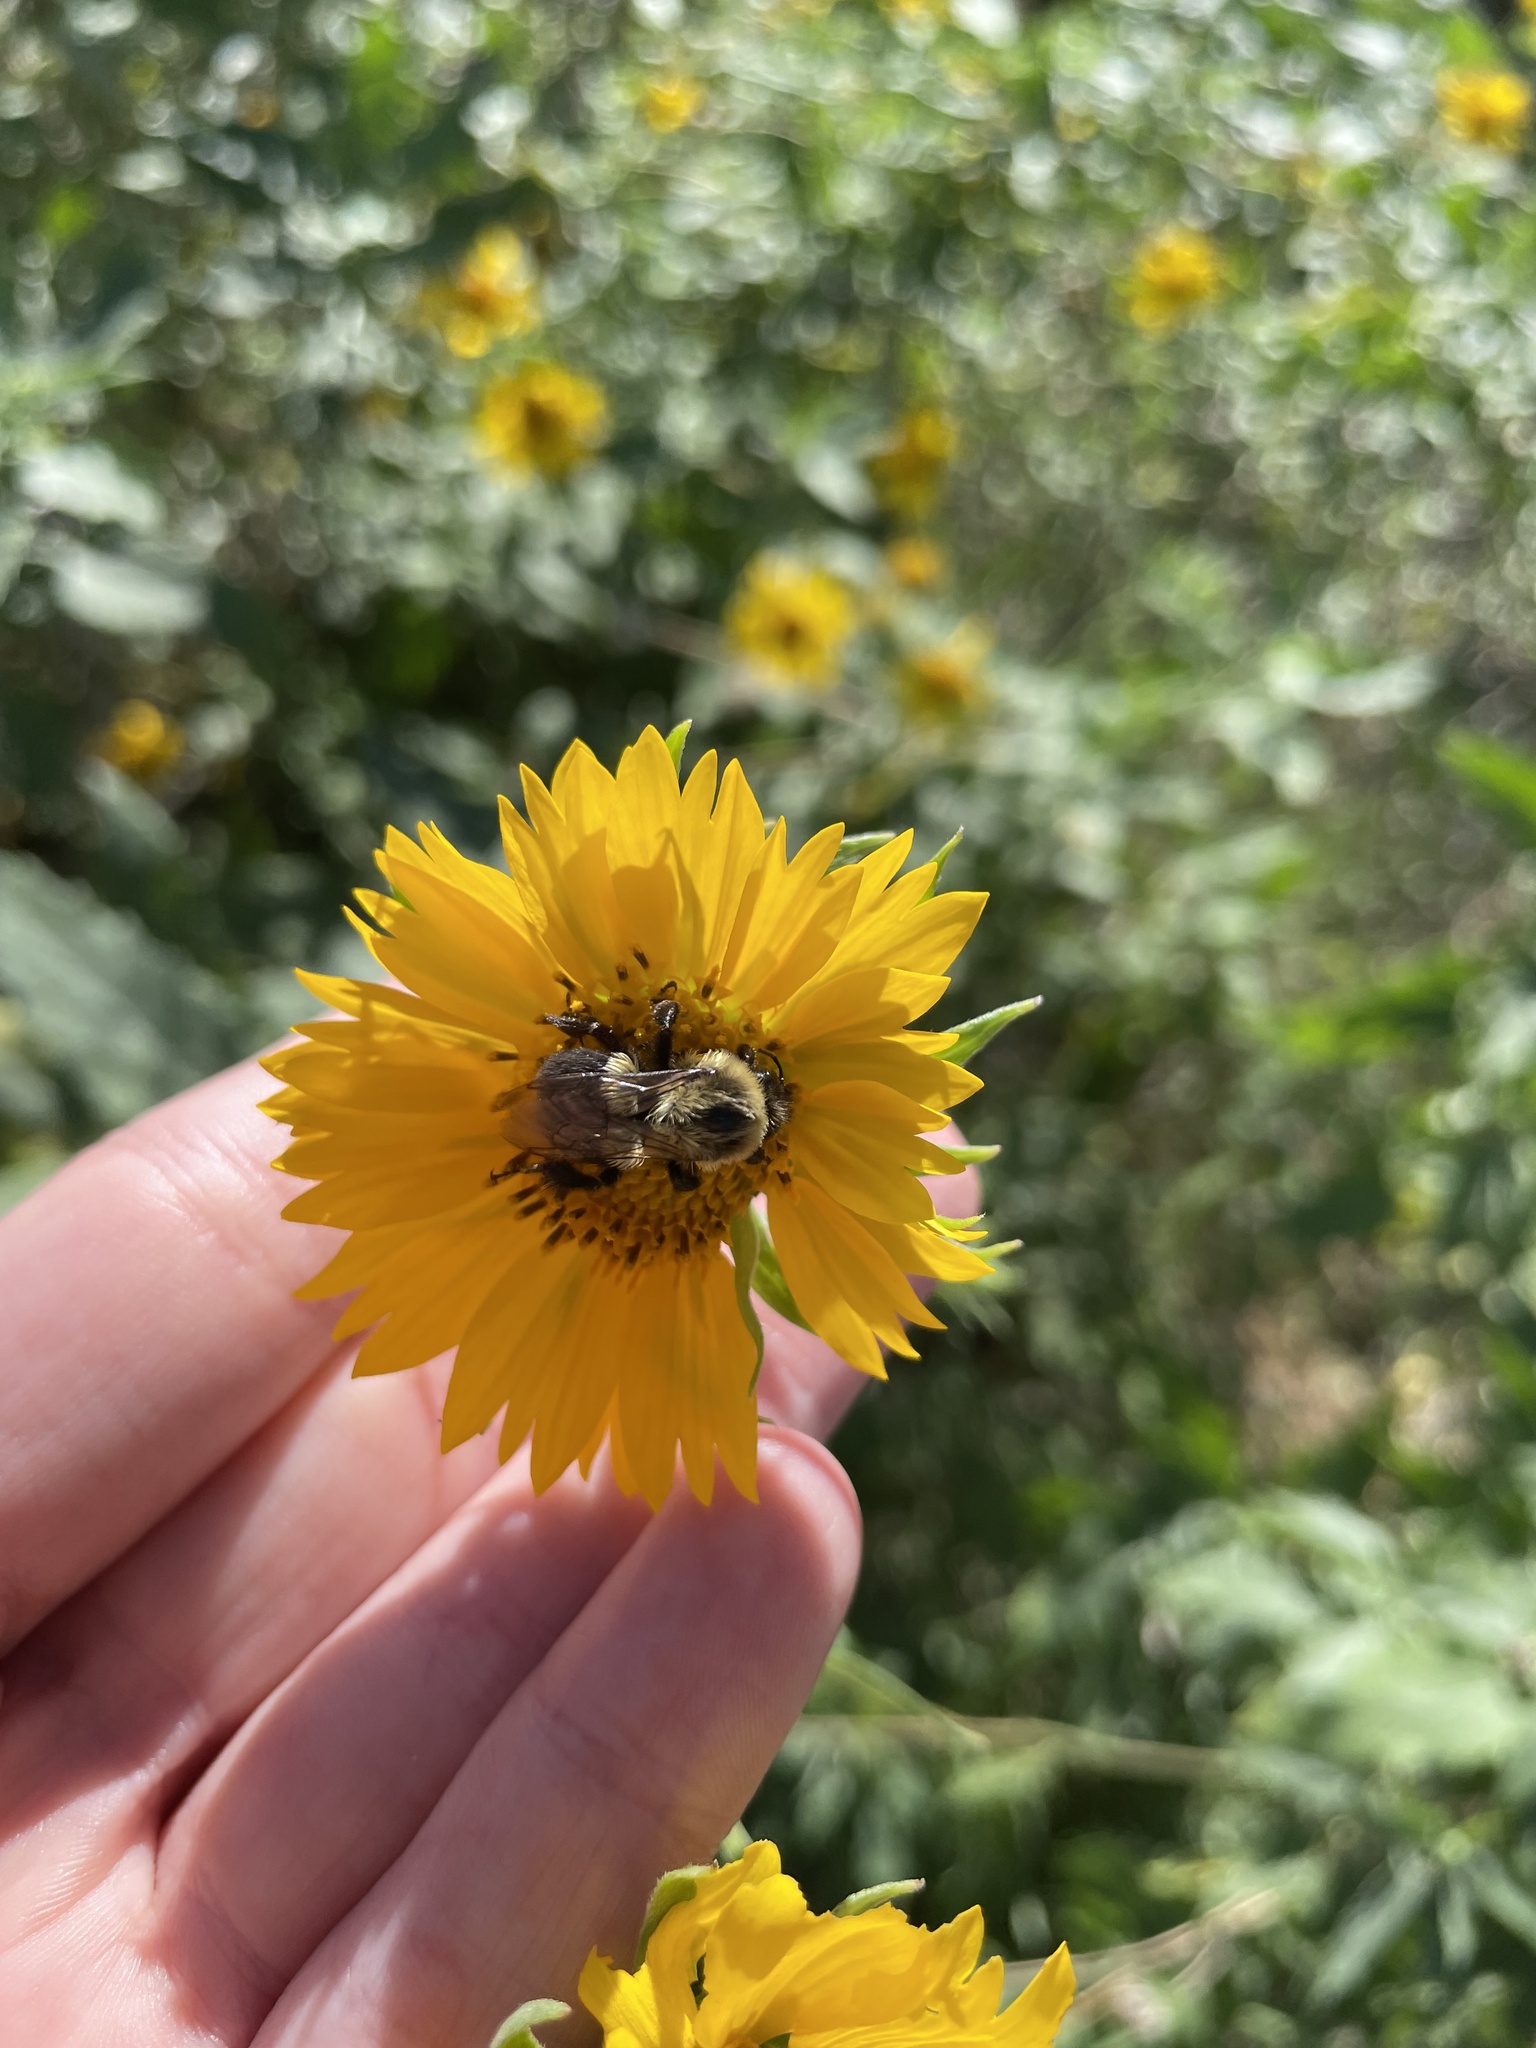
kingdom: Animalia
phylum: Arthropoda
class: Insecta
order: Hymenoptera
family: Apidae
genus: Bombus
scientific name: Bombus impatiens
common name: Common eastern bumble bee
